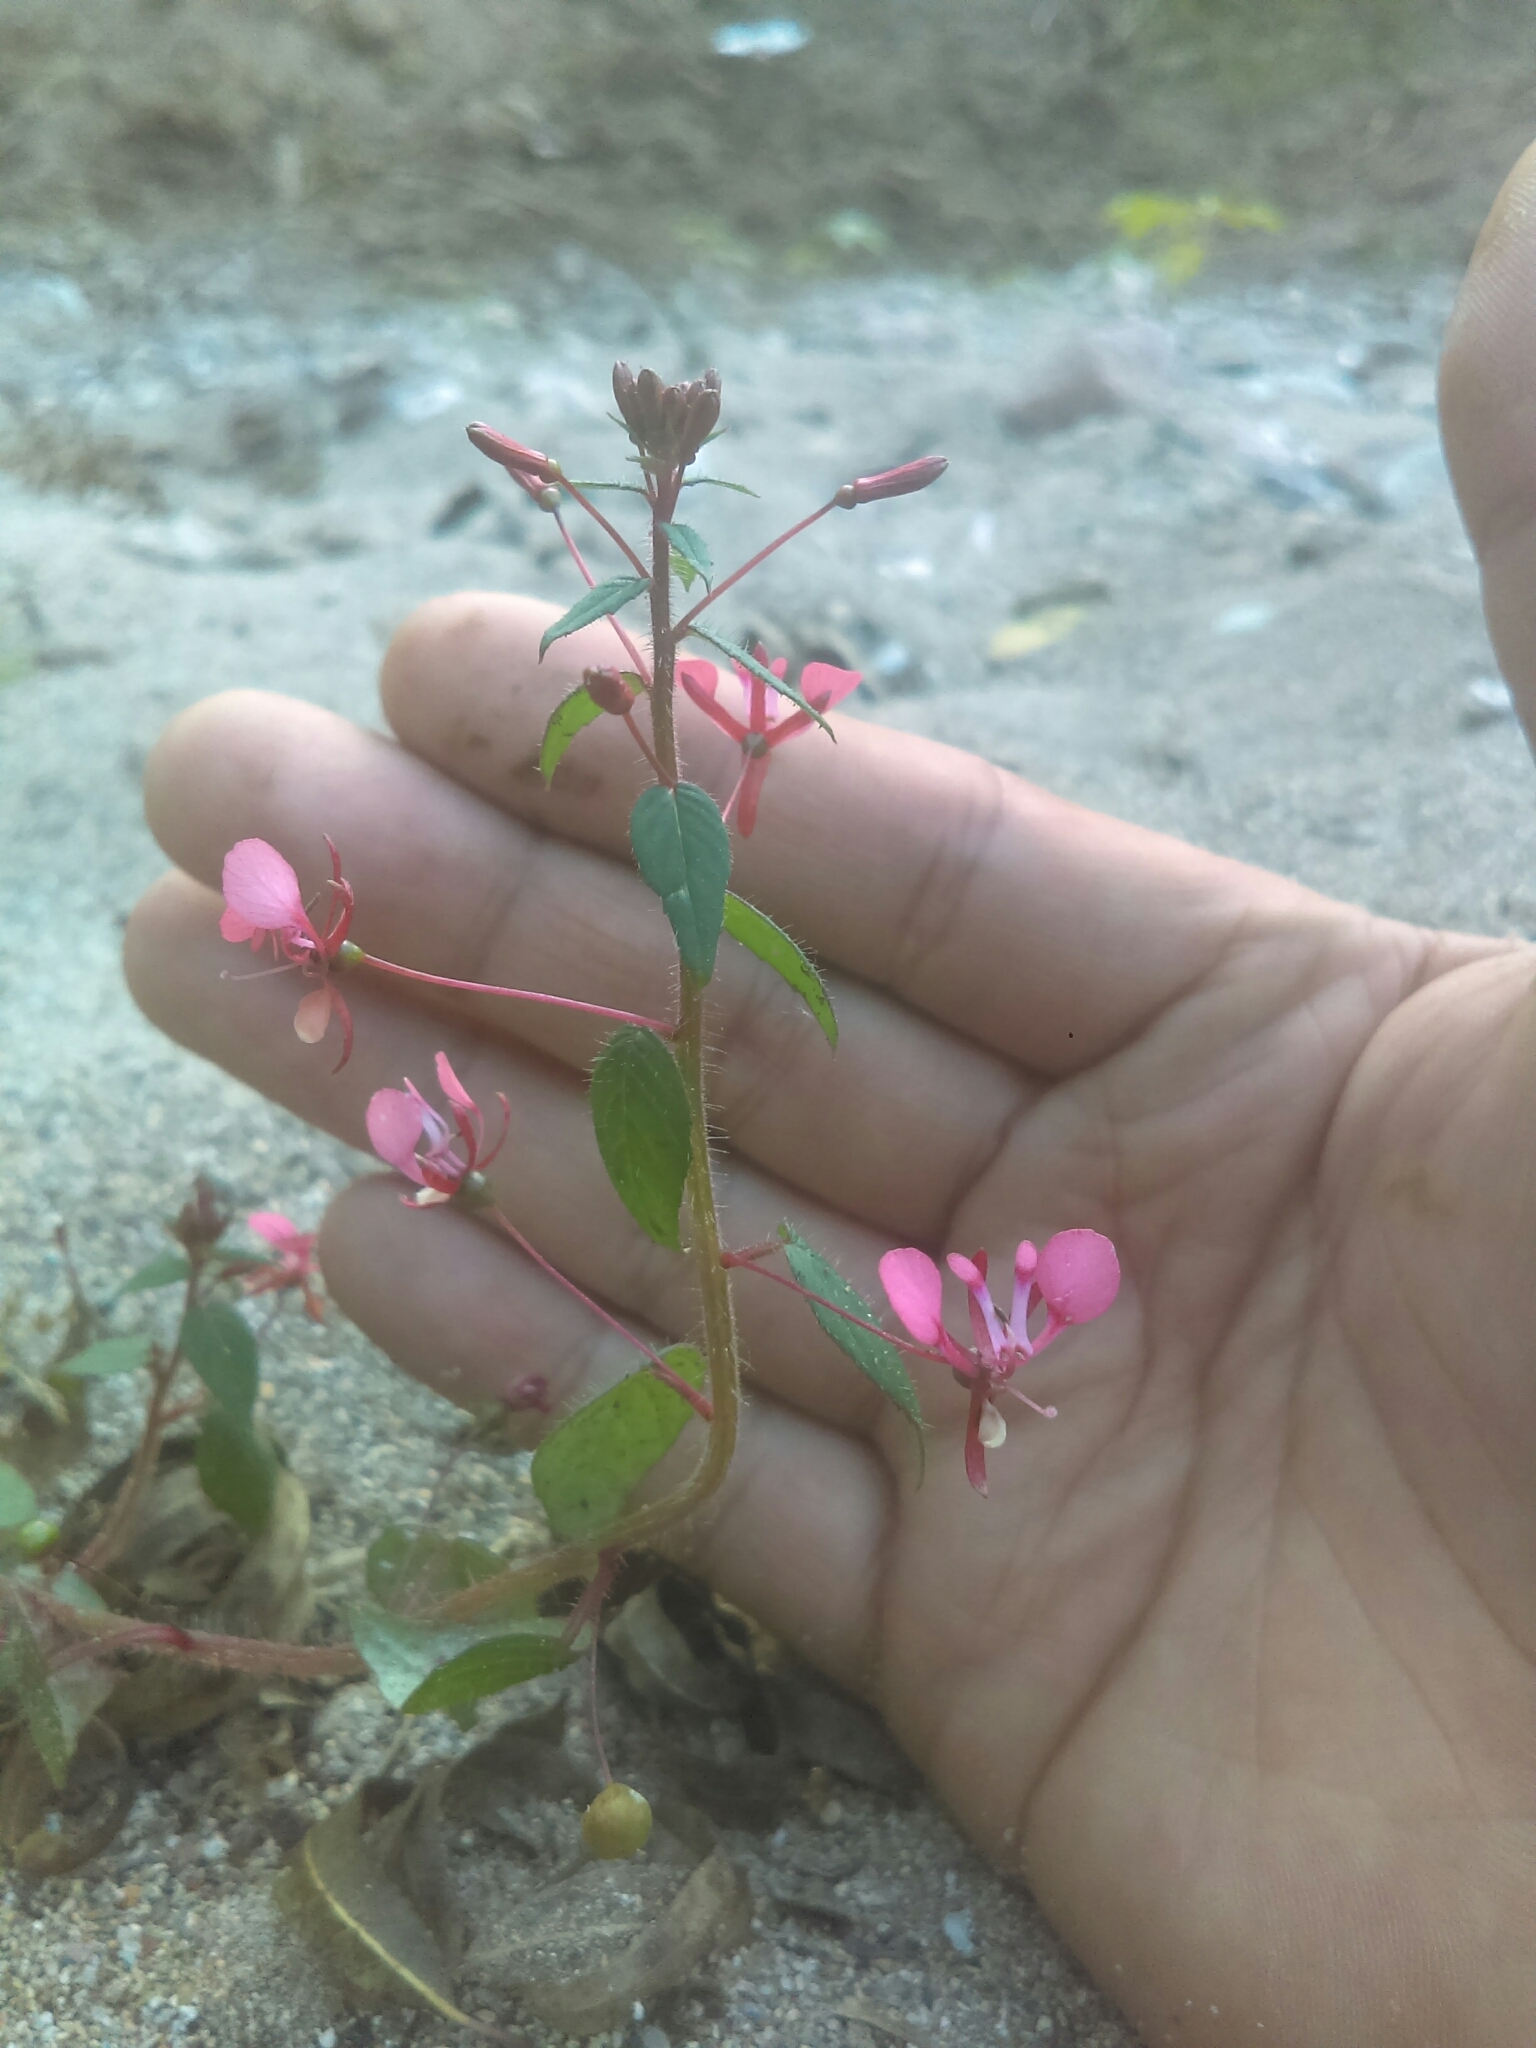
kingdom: Plantae
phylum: Tracheophyta
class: Magnoliopsida
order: Myrtales
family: Onagraceae
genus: Lopezia
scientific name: Lopezia racemosa
